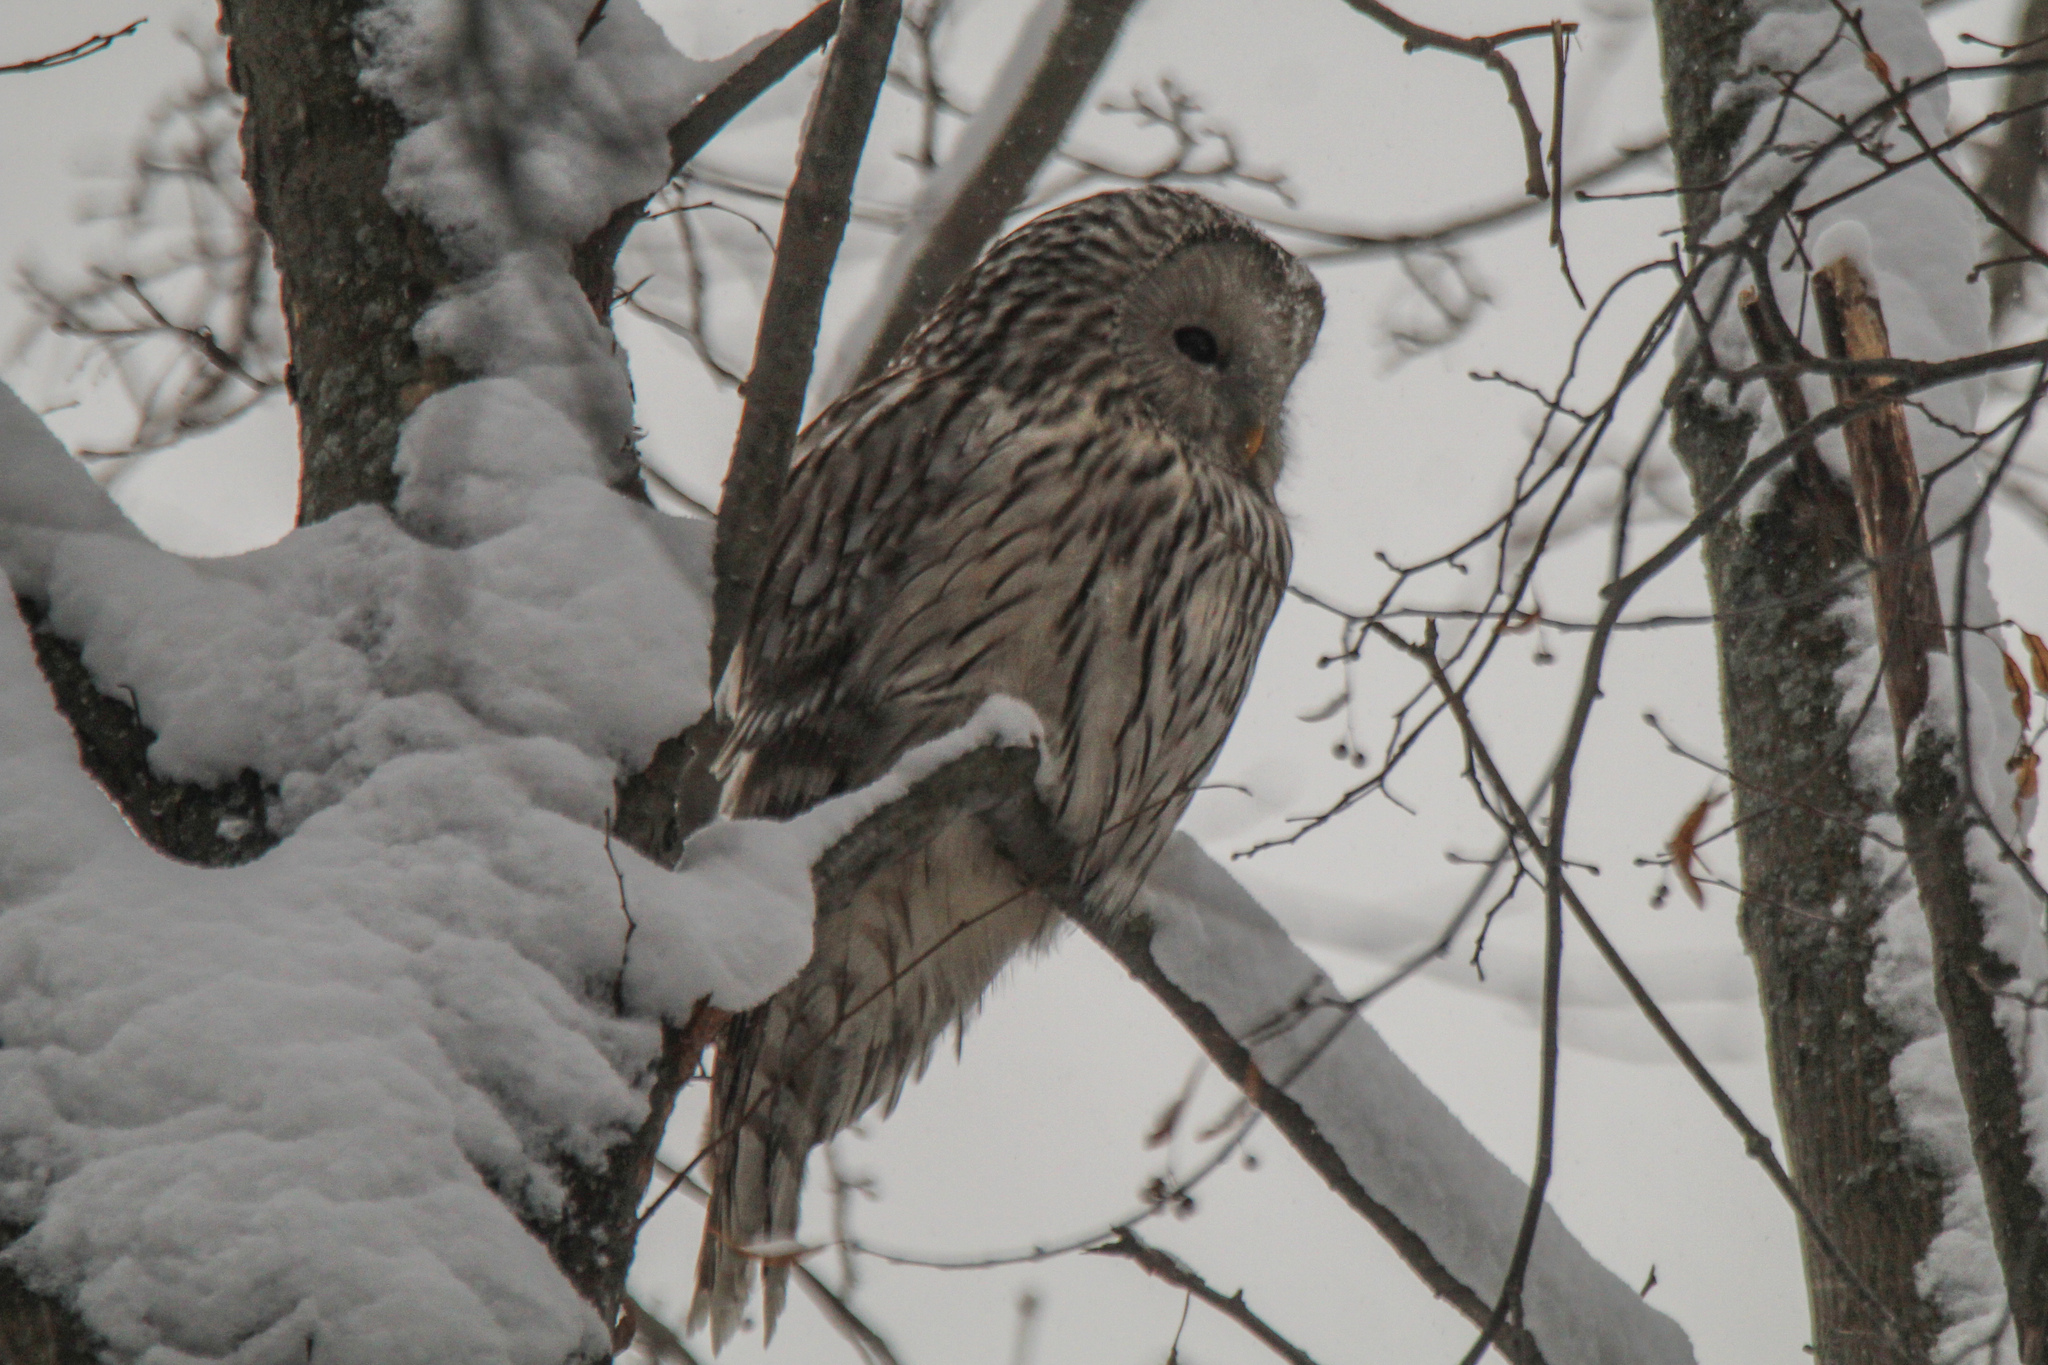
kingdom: Animalia
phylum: Chordata
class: Aves
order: Strigiformes
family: Strigidae
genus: Strix
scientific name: Strix uralensis
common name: Ural owl
